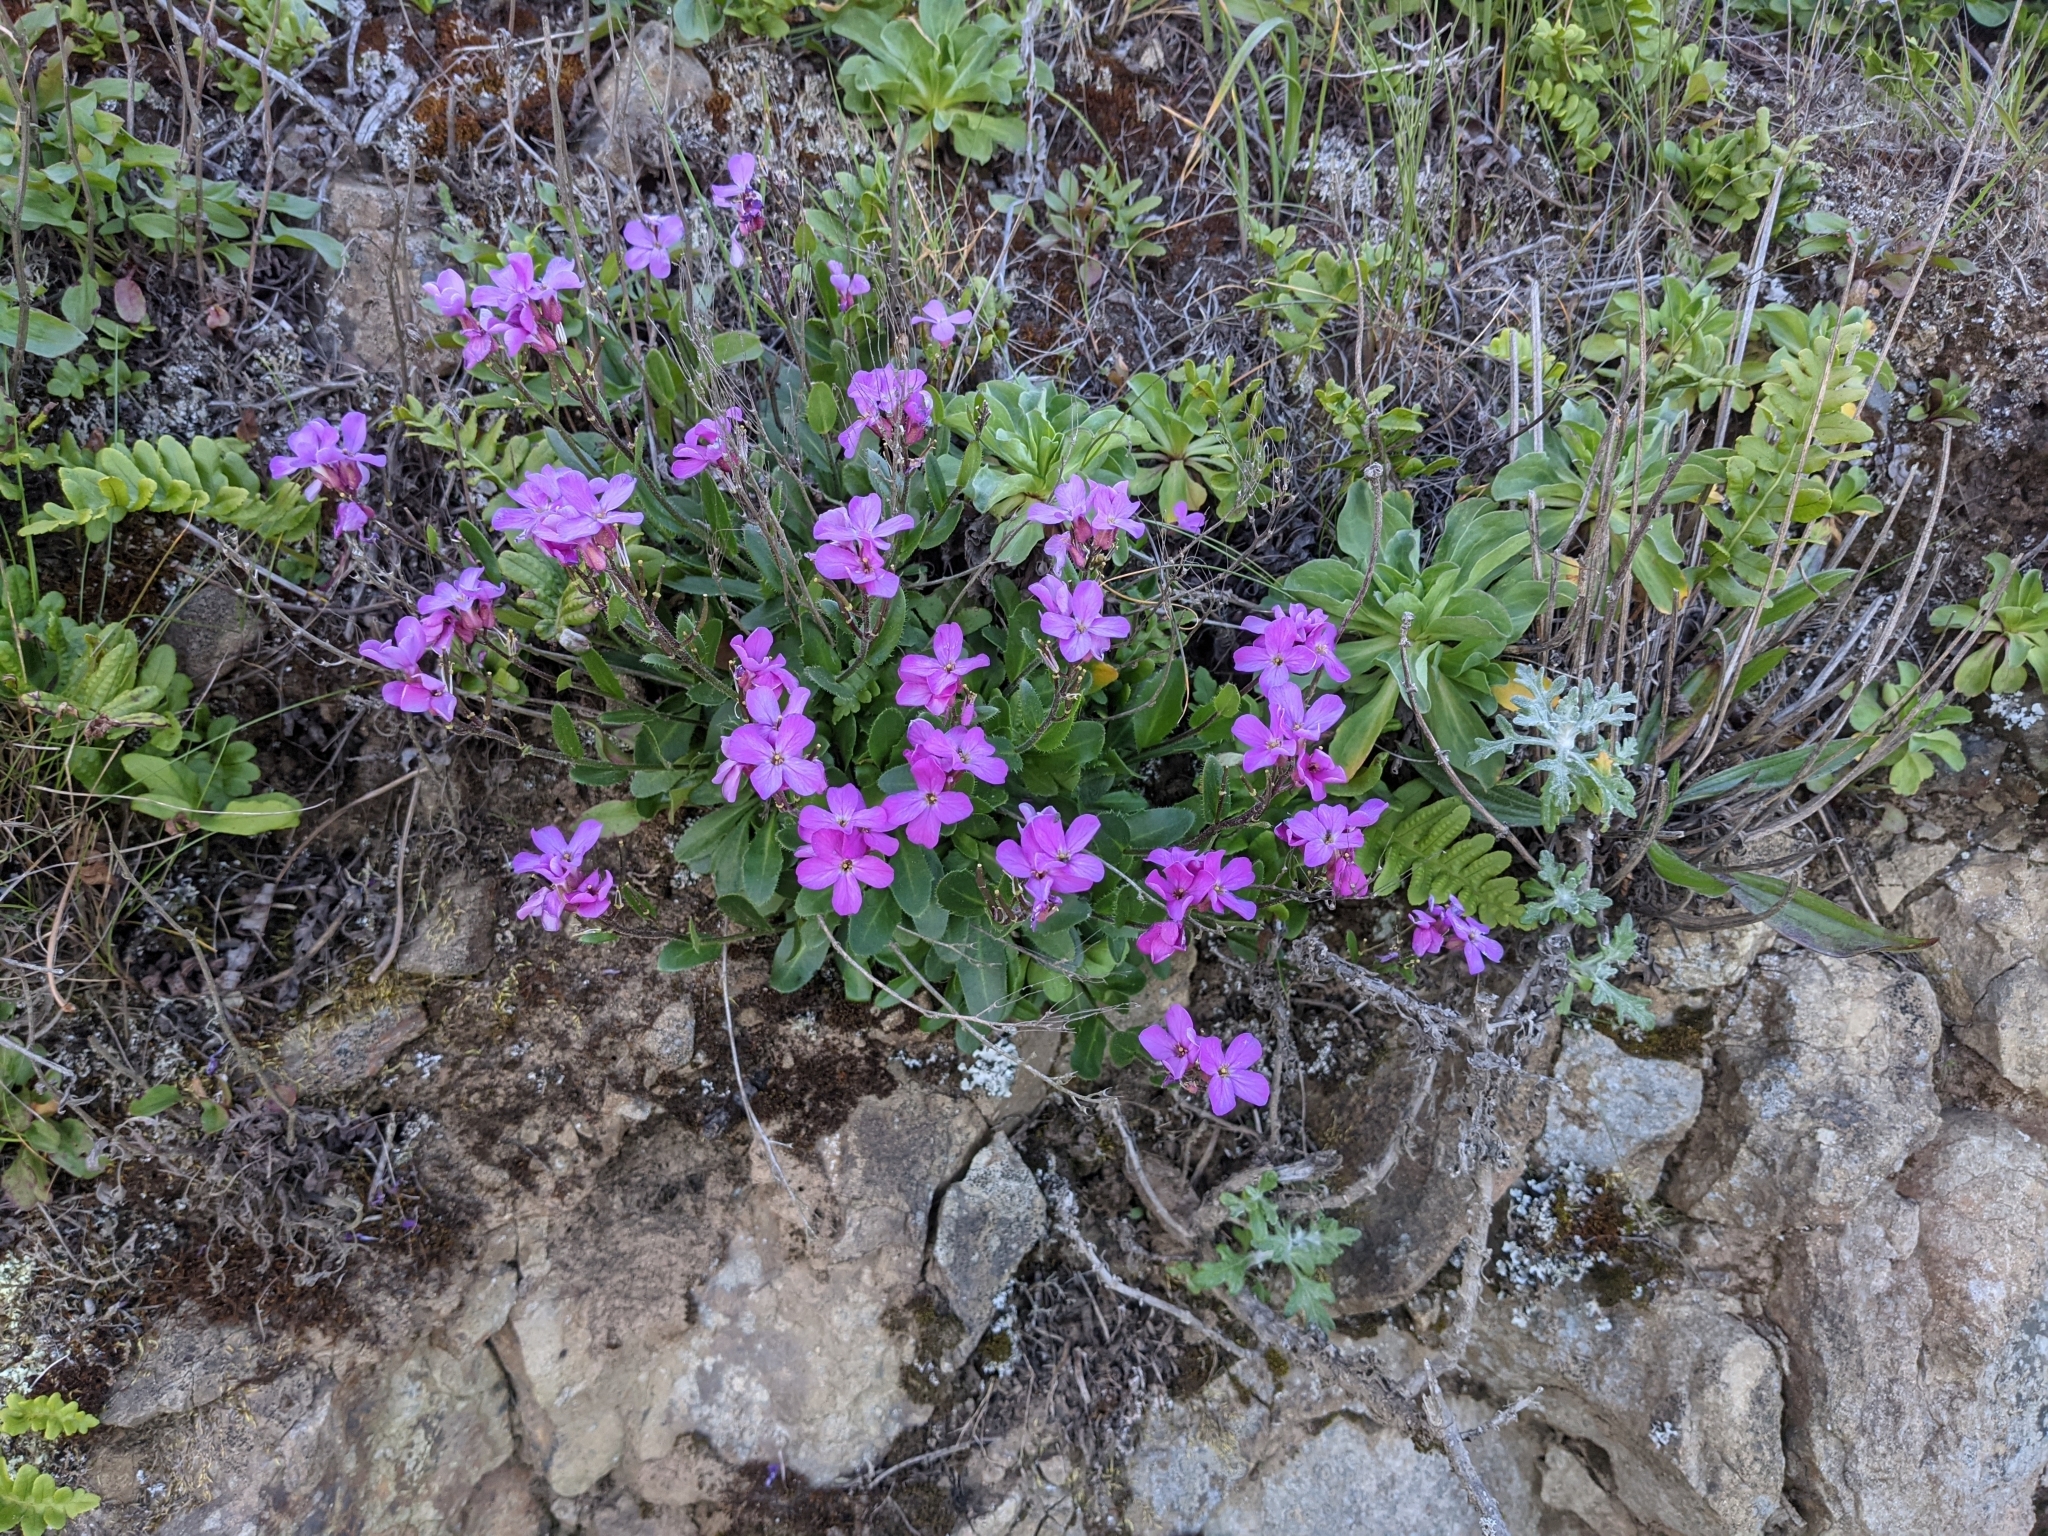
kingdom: Plantae
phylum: Tracheophyta
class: Magnoliopsida
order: Brassicales
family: Brassicaceae
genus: Arabis
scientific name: Arabis blepharophylla
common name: Rose rockcress
